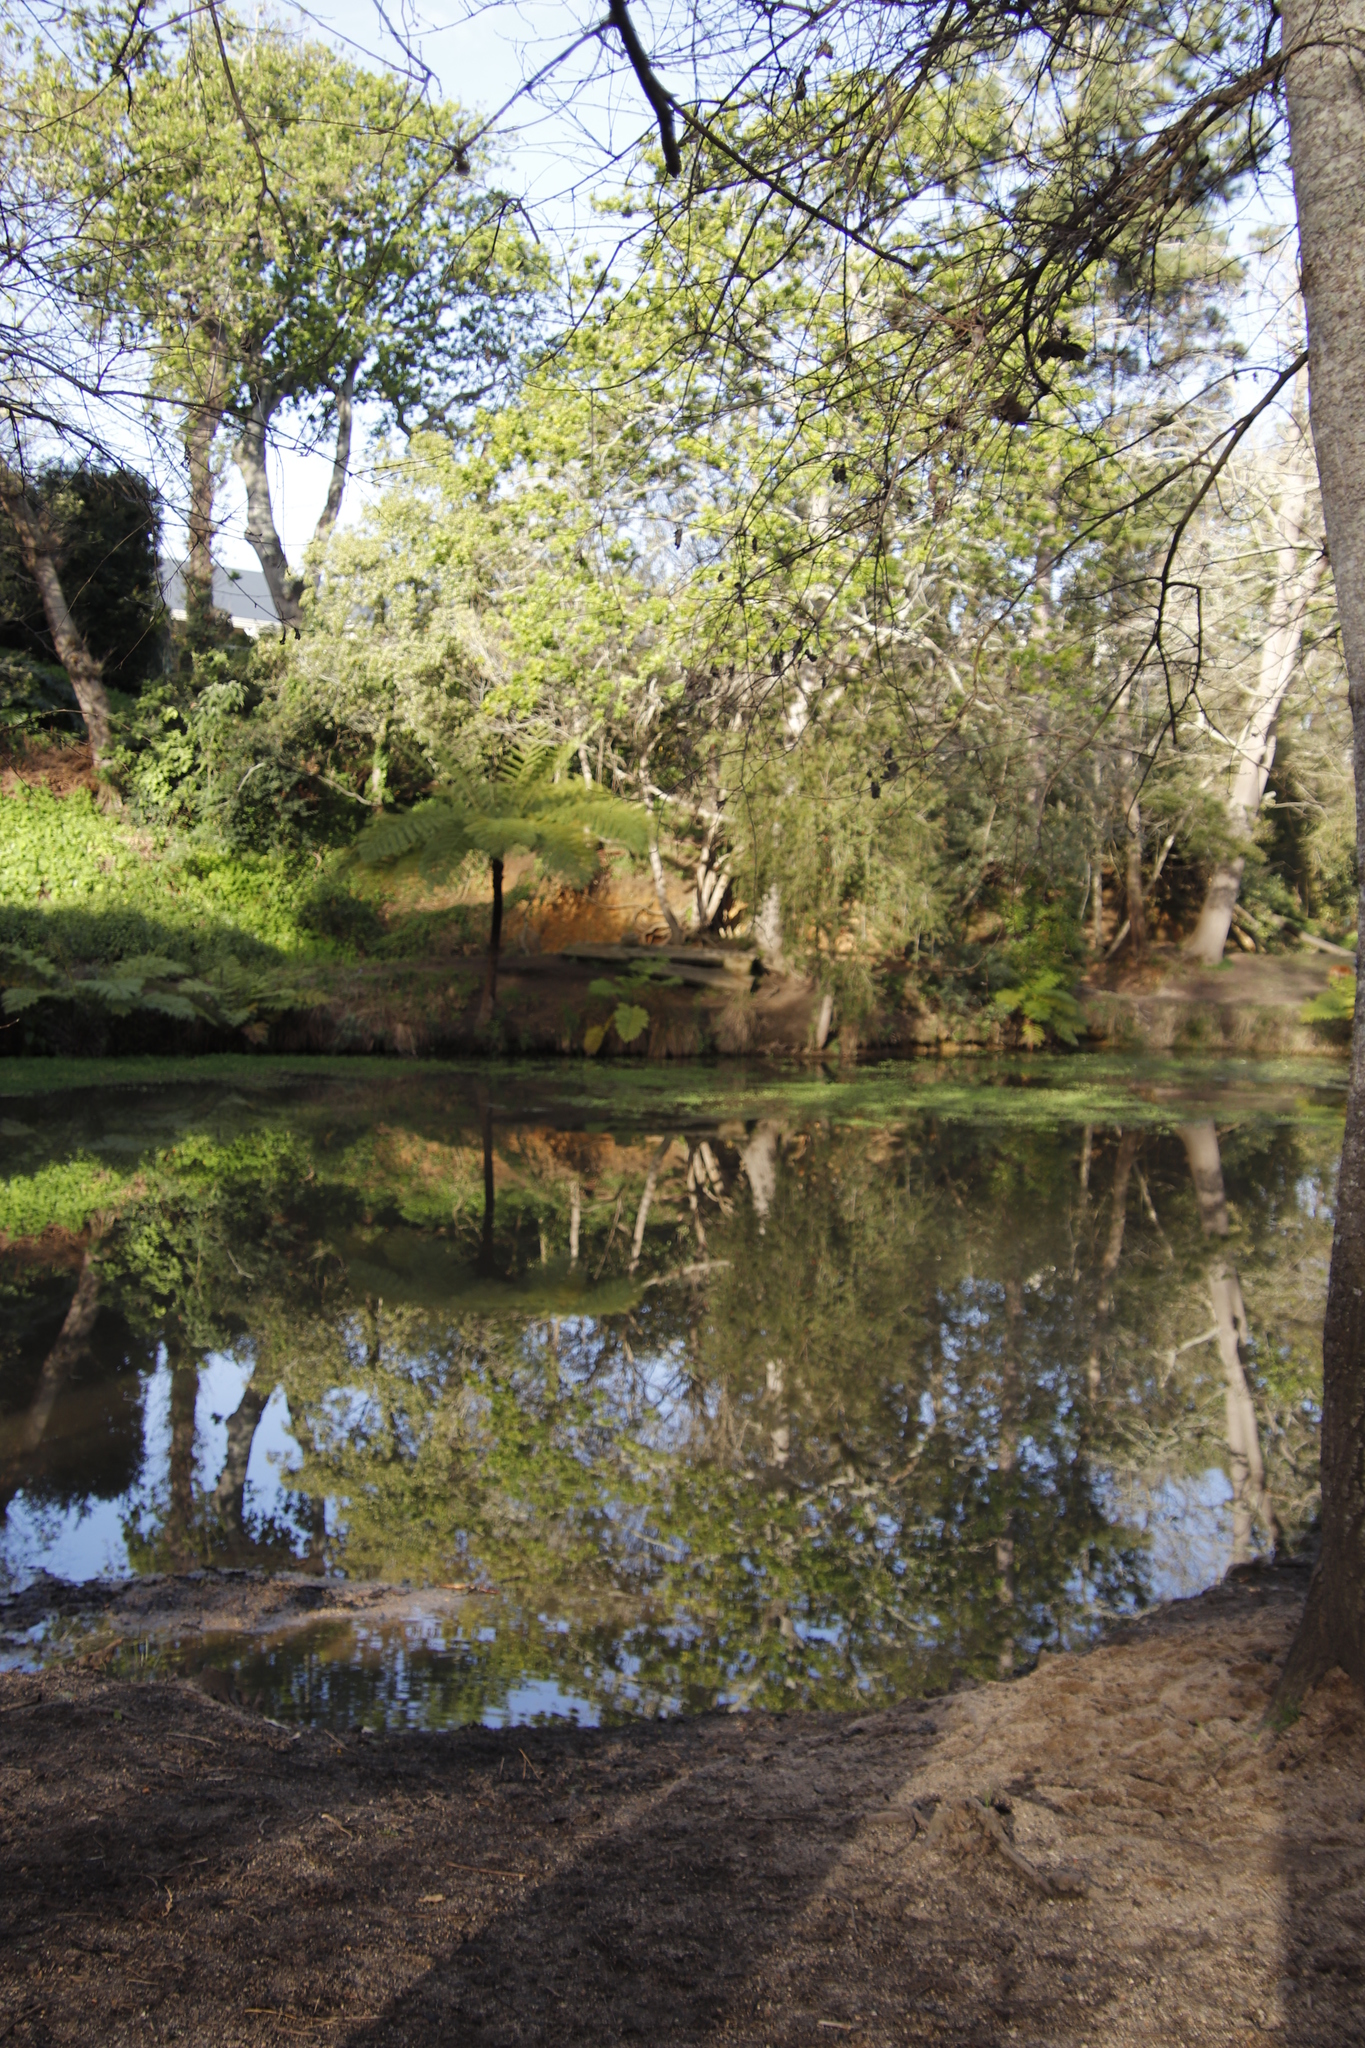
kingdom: Plantae
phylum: Tracheophyta
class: Polypodiopsida
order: Cyatheales
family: Cyatheaceae
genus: Sphaeropteris
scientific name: Sphaeropteris cooperi
